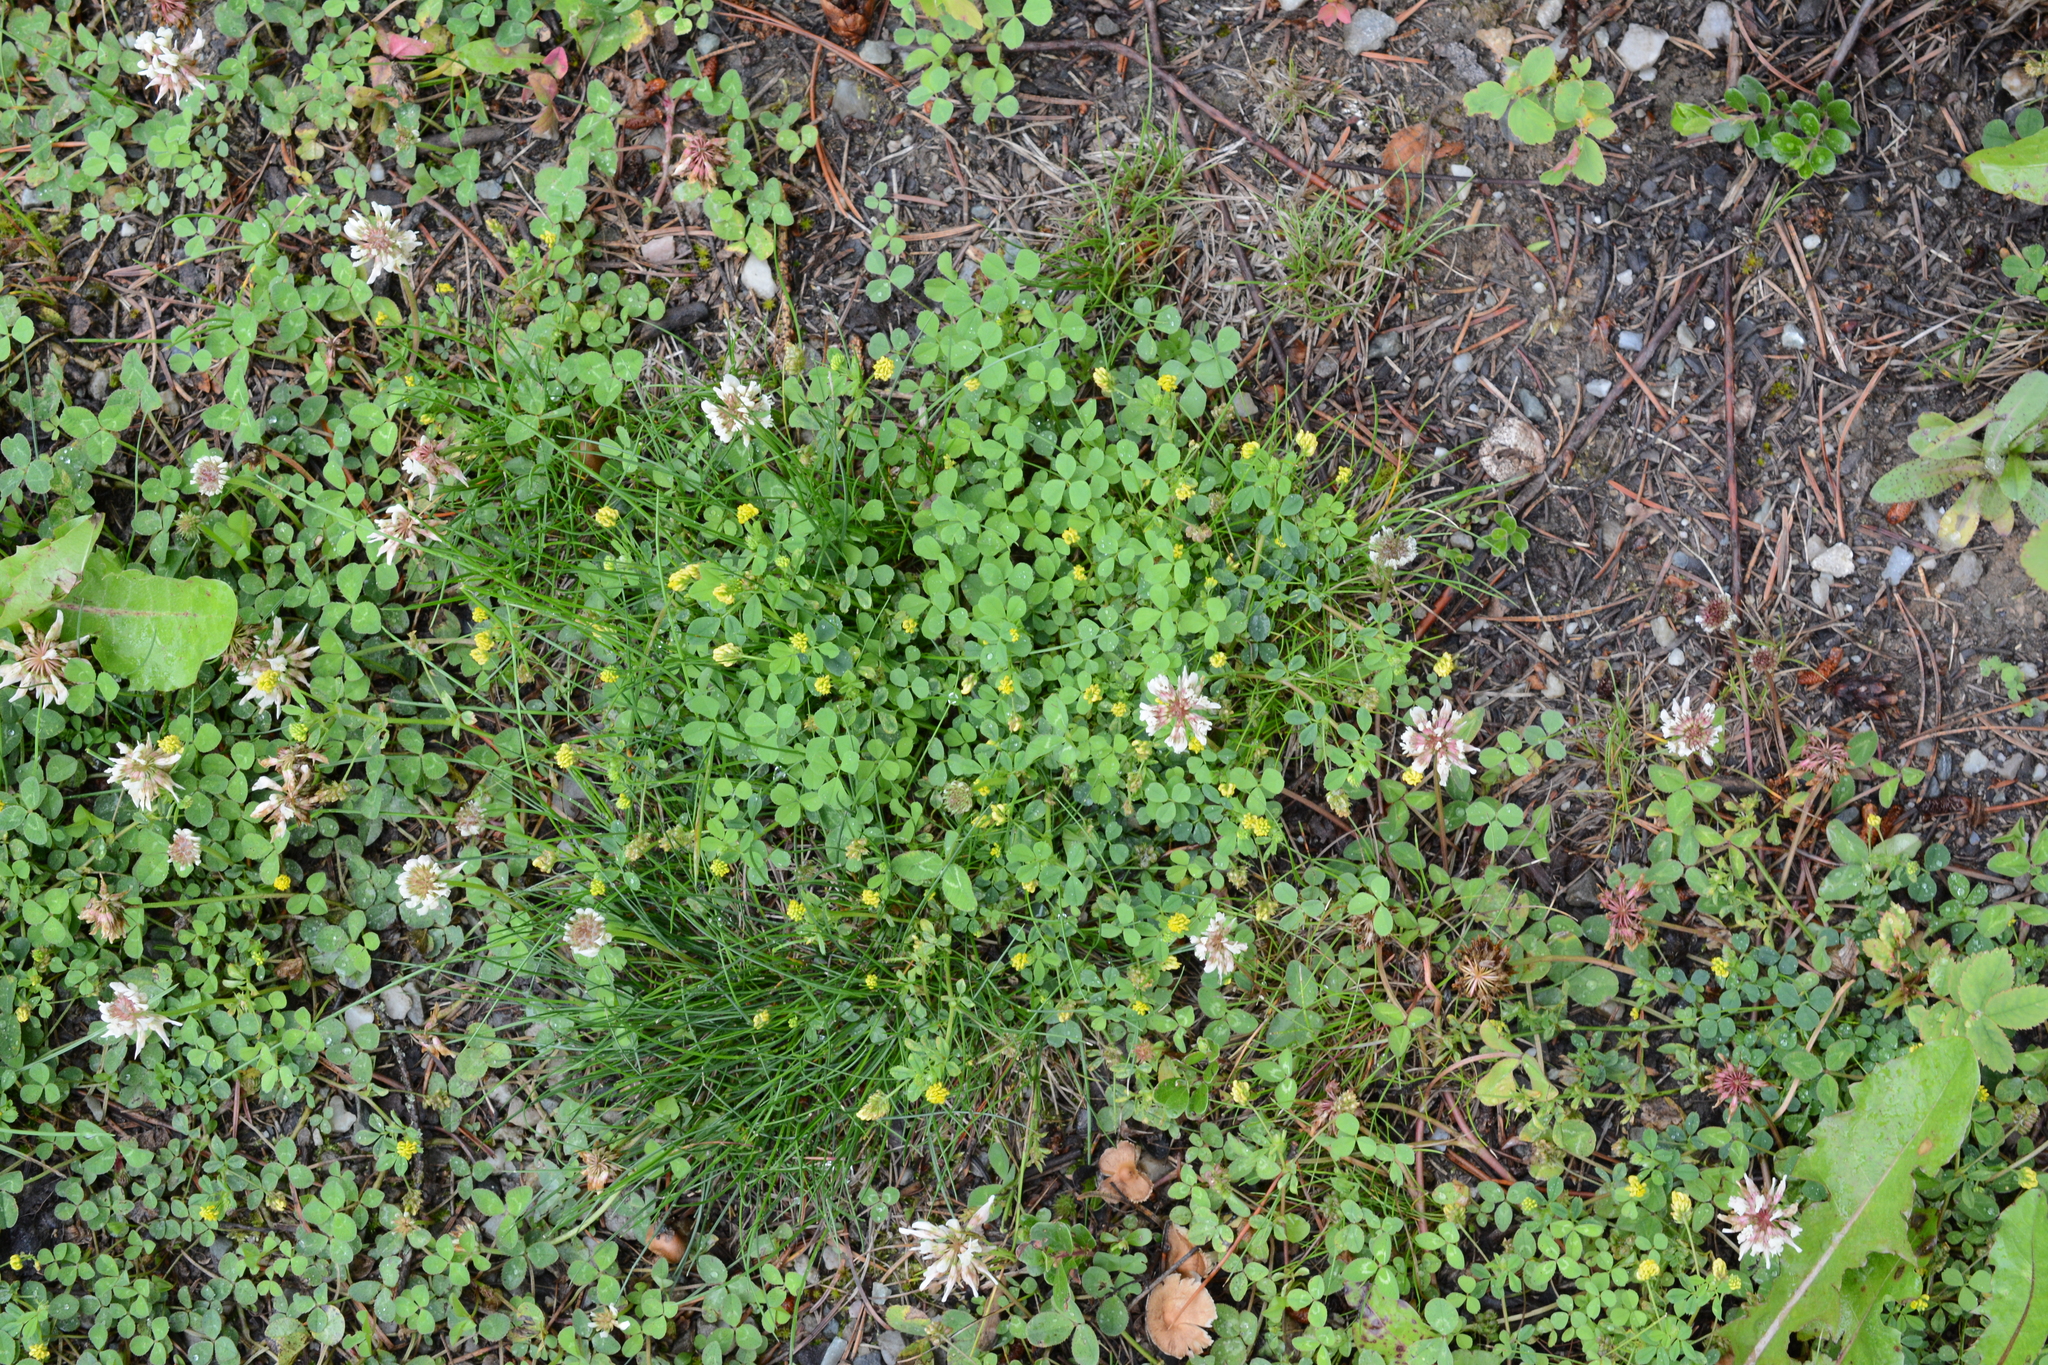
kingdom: Plantae
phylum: Tracheophyta
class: Magnoliopsida
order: Fabales
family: Fabaceae
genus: Medicago
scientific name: Medicago lupulina
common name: Black medick
